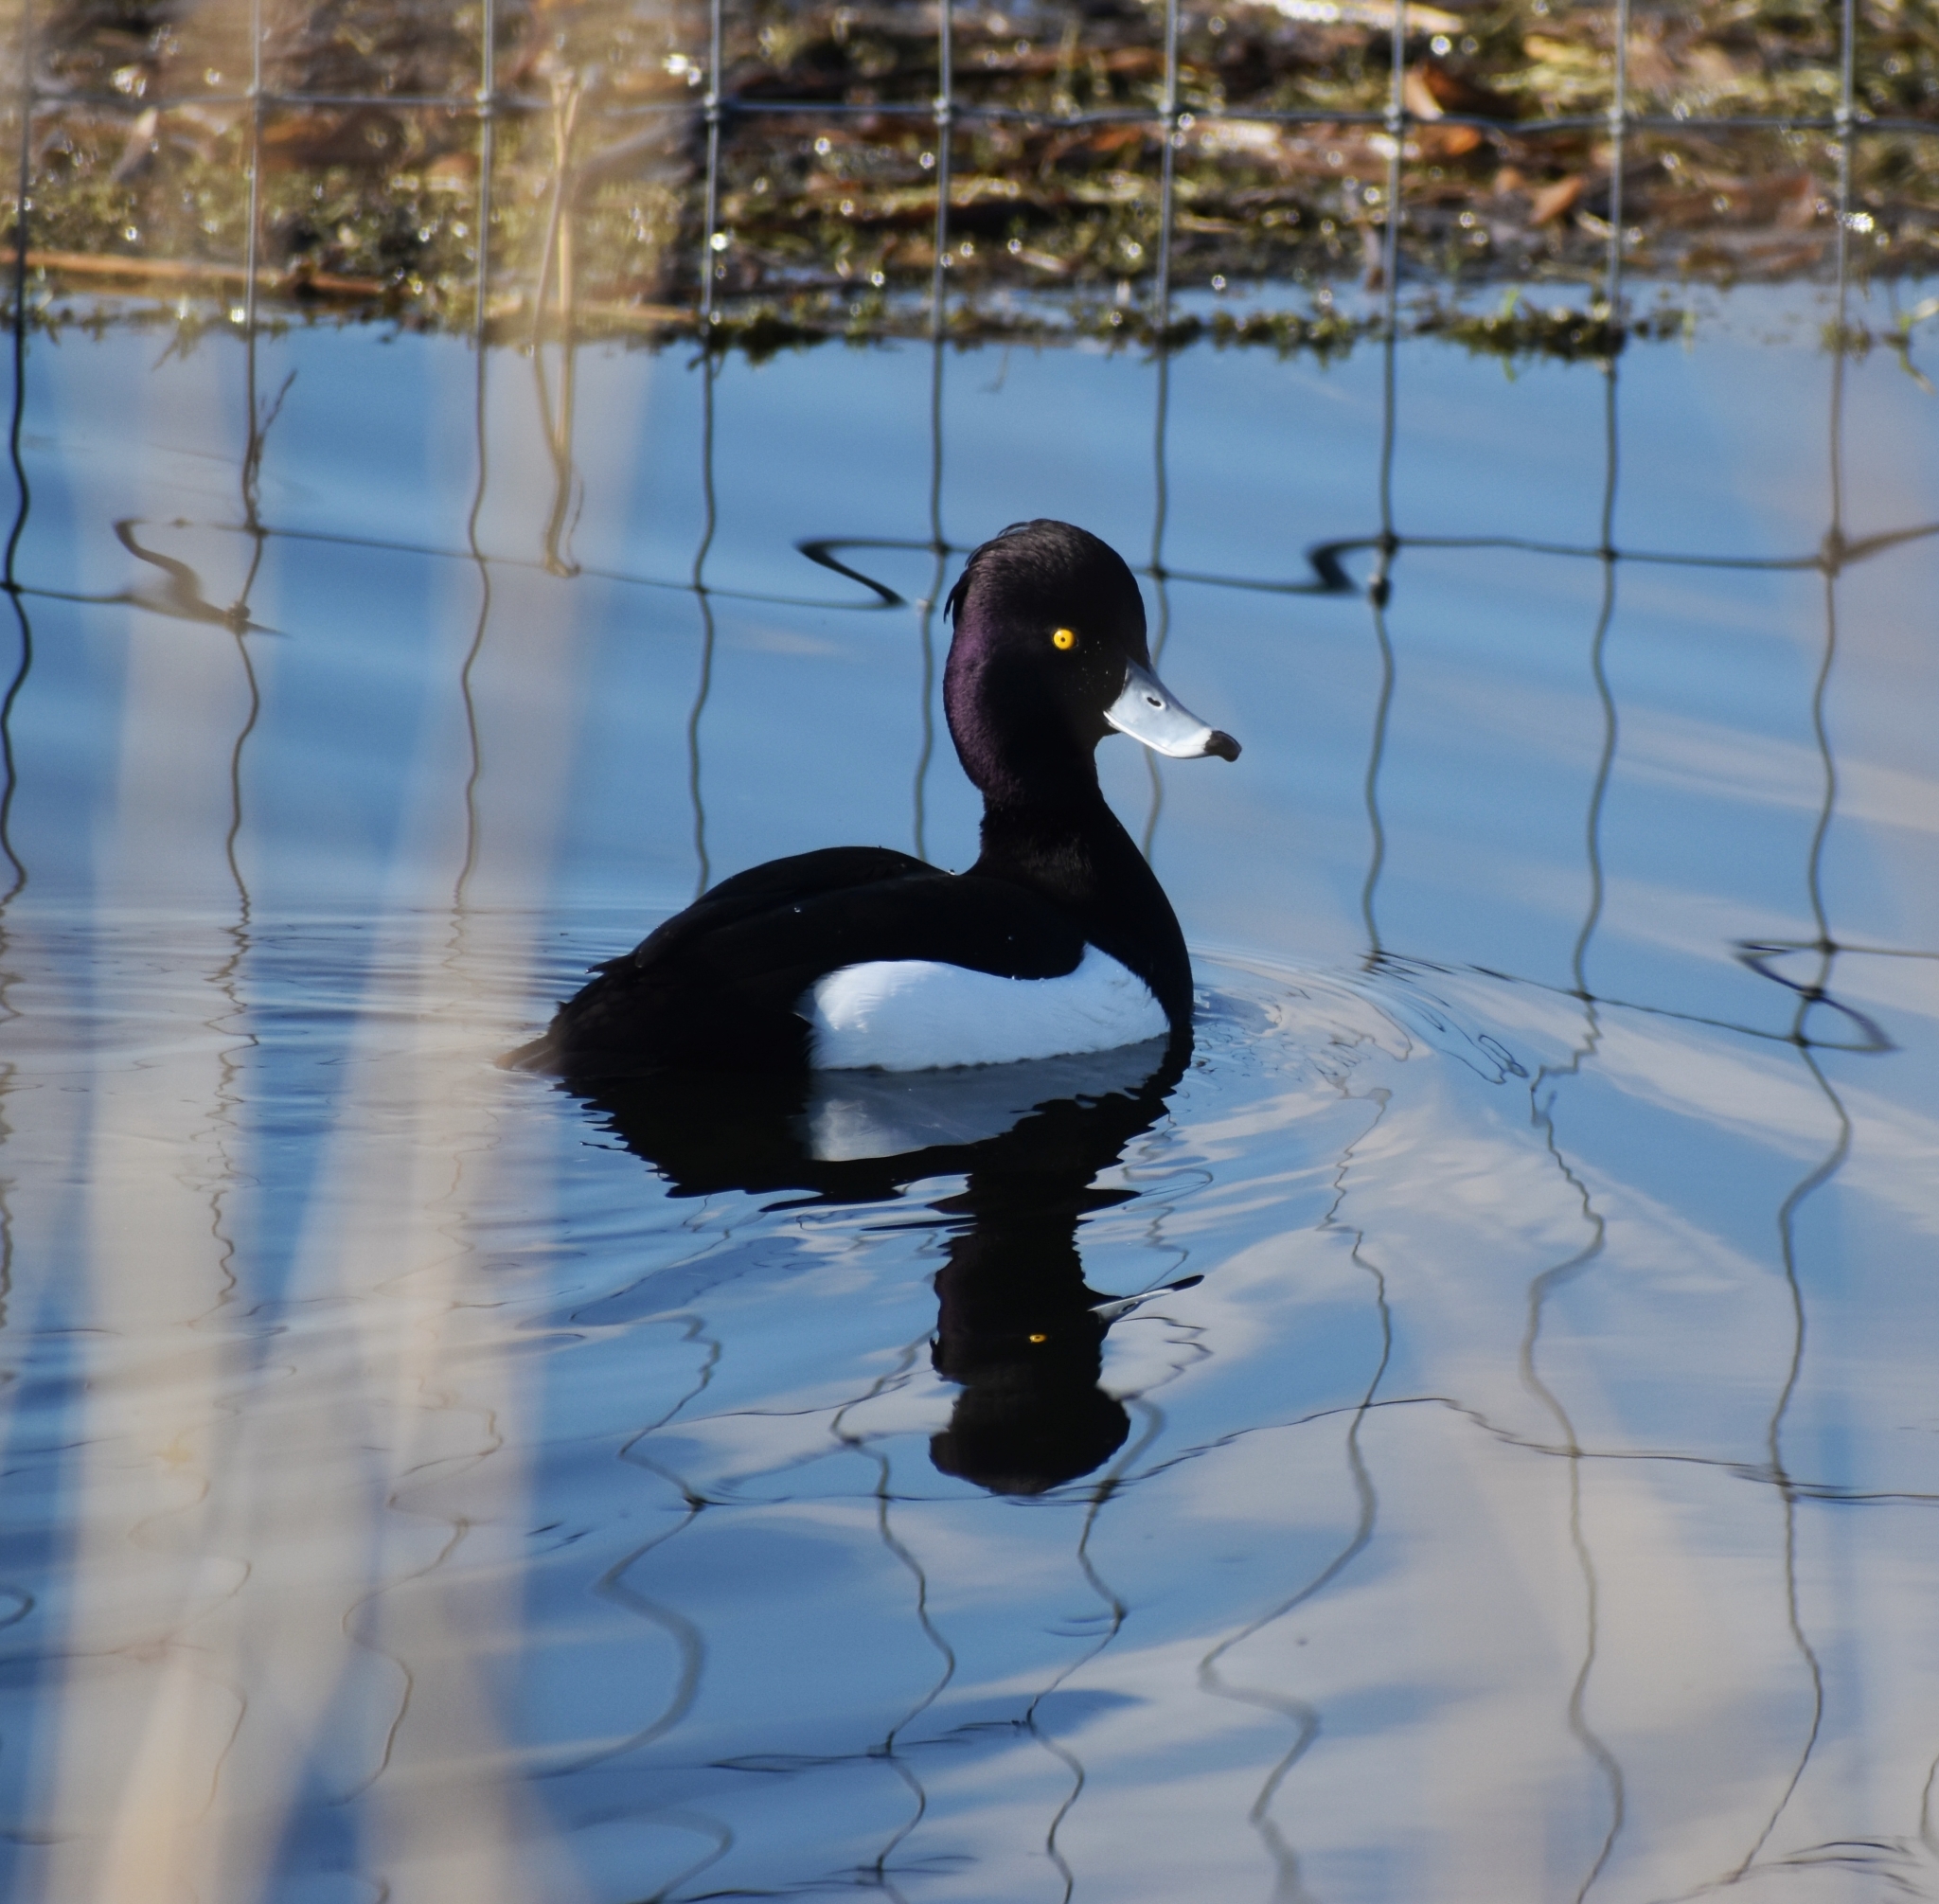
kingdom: Animalia
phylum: Chordata
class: Aves
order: Anseriformes
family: Anatidae
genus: Aythya
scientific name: Aythya fuligula
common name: Tufted duck
